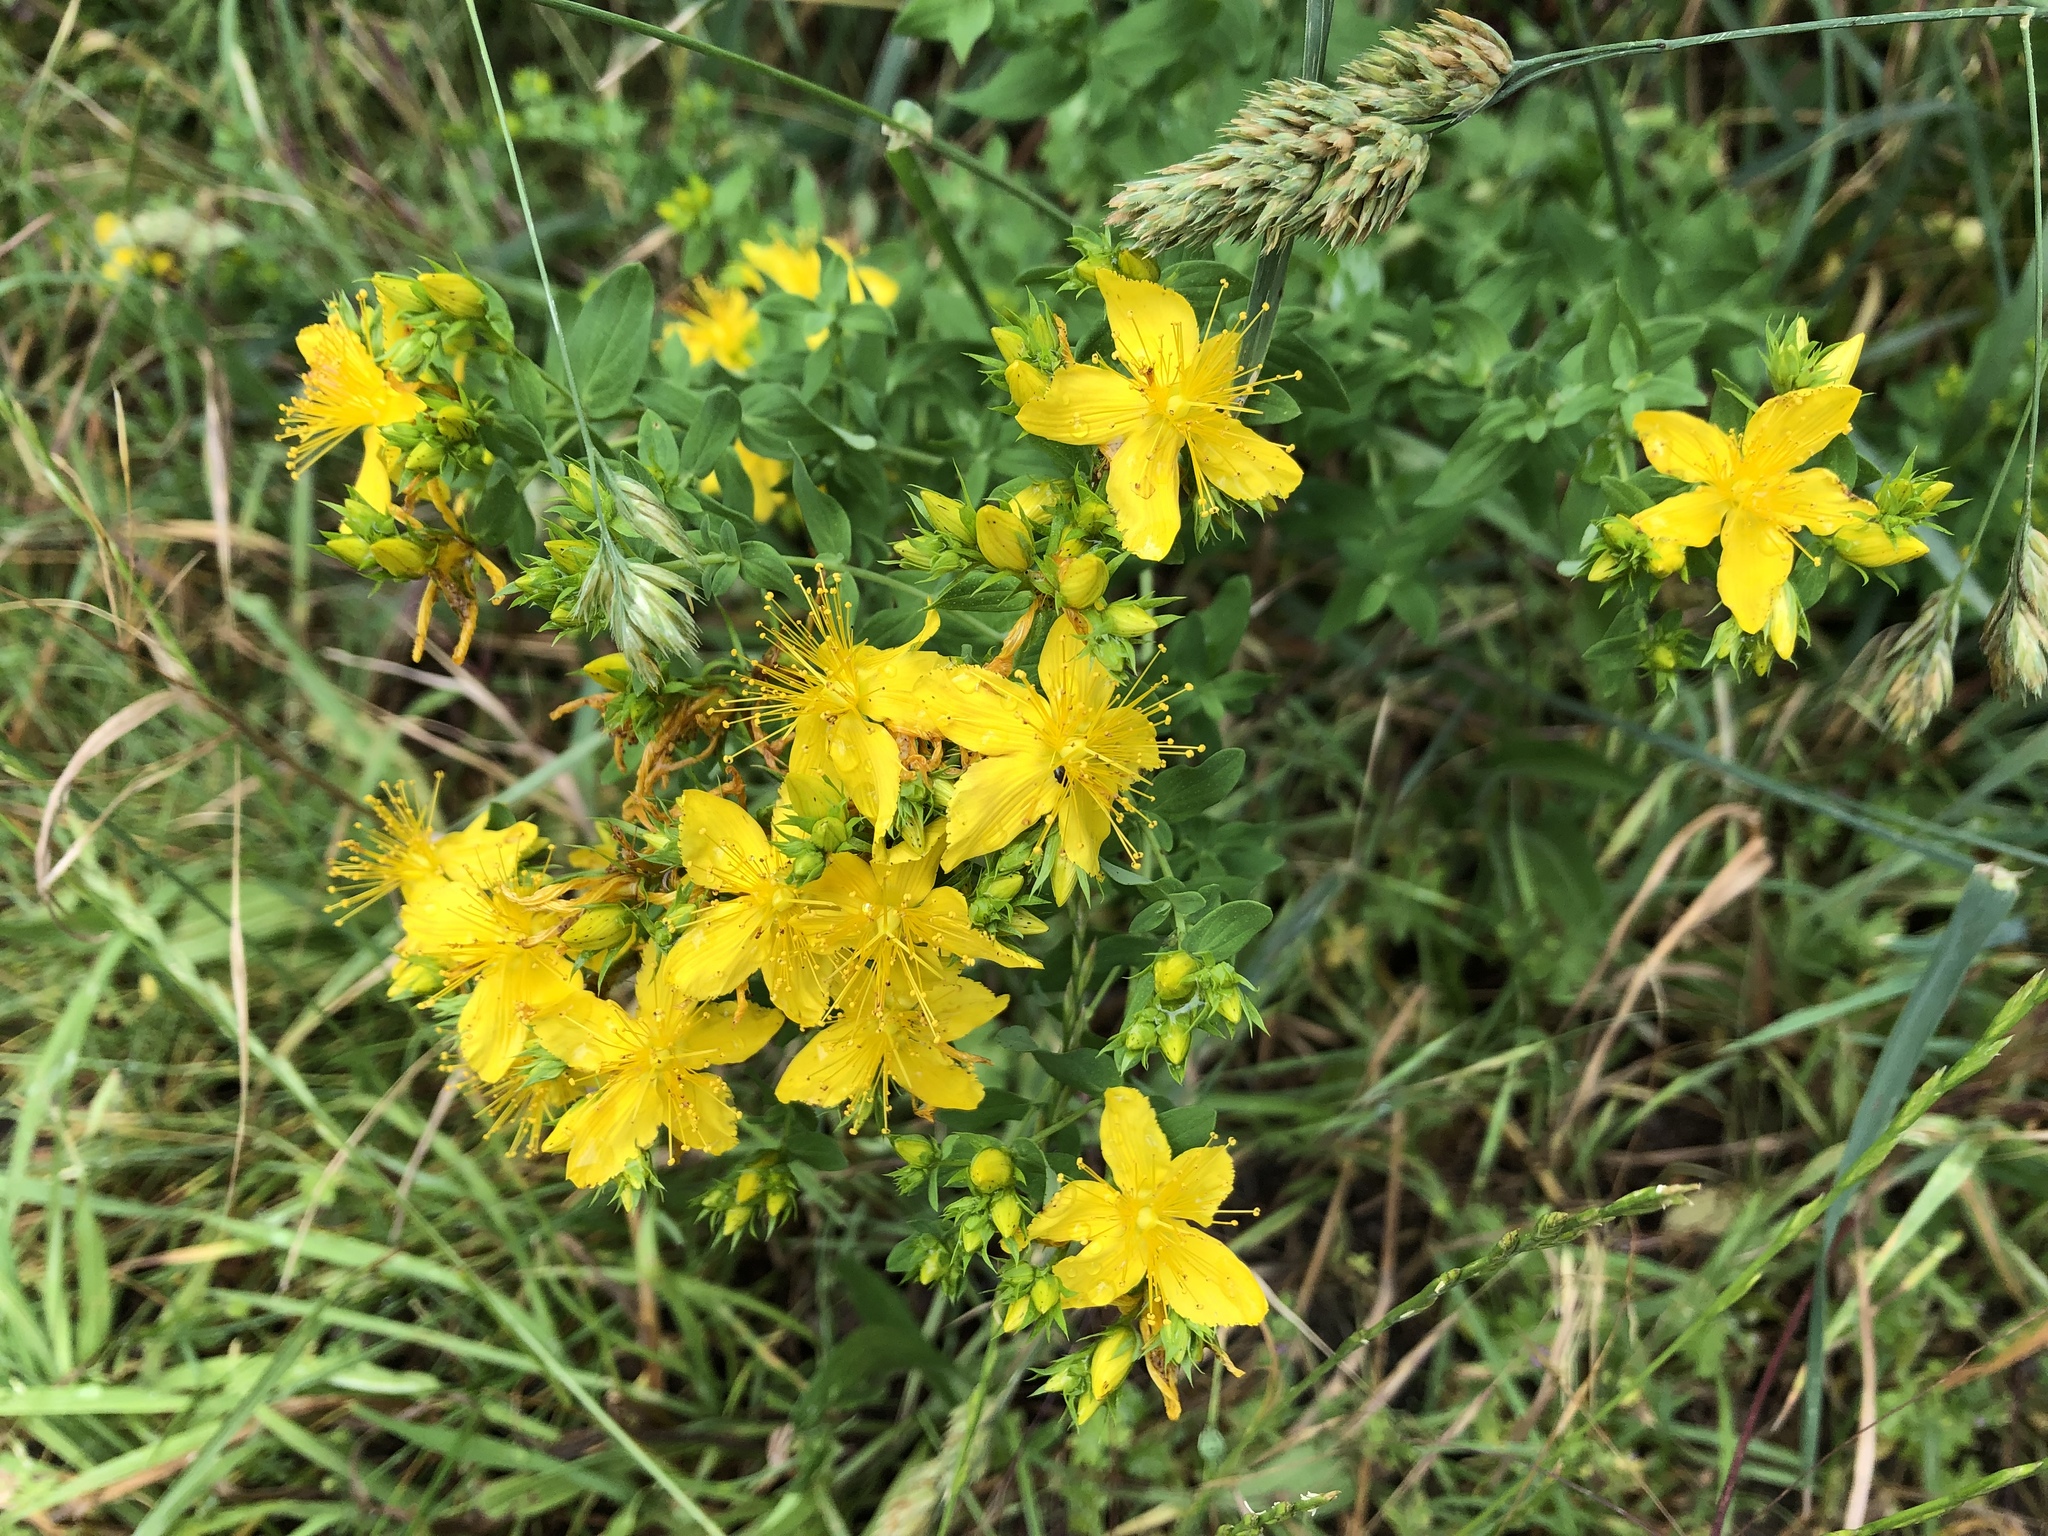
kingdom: Plantae
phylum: Tracheophyta
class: Magnoliopsida
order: Malpighiales
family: Hypericaceae
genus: Hypericum
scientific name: Hypericum perforatum
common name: Common st. johnswort
